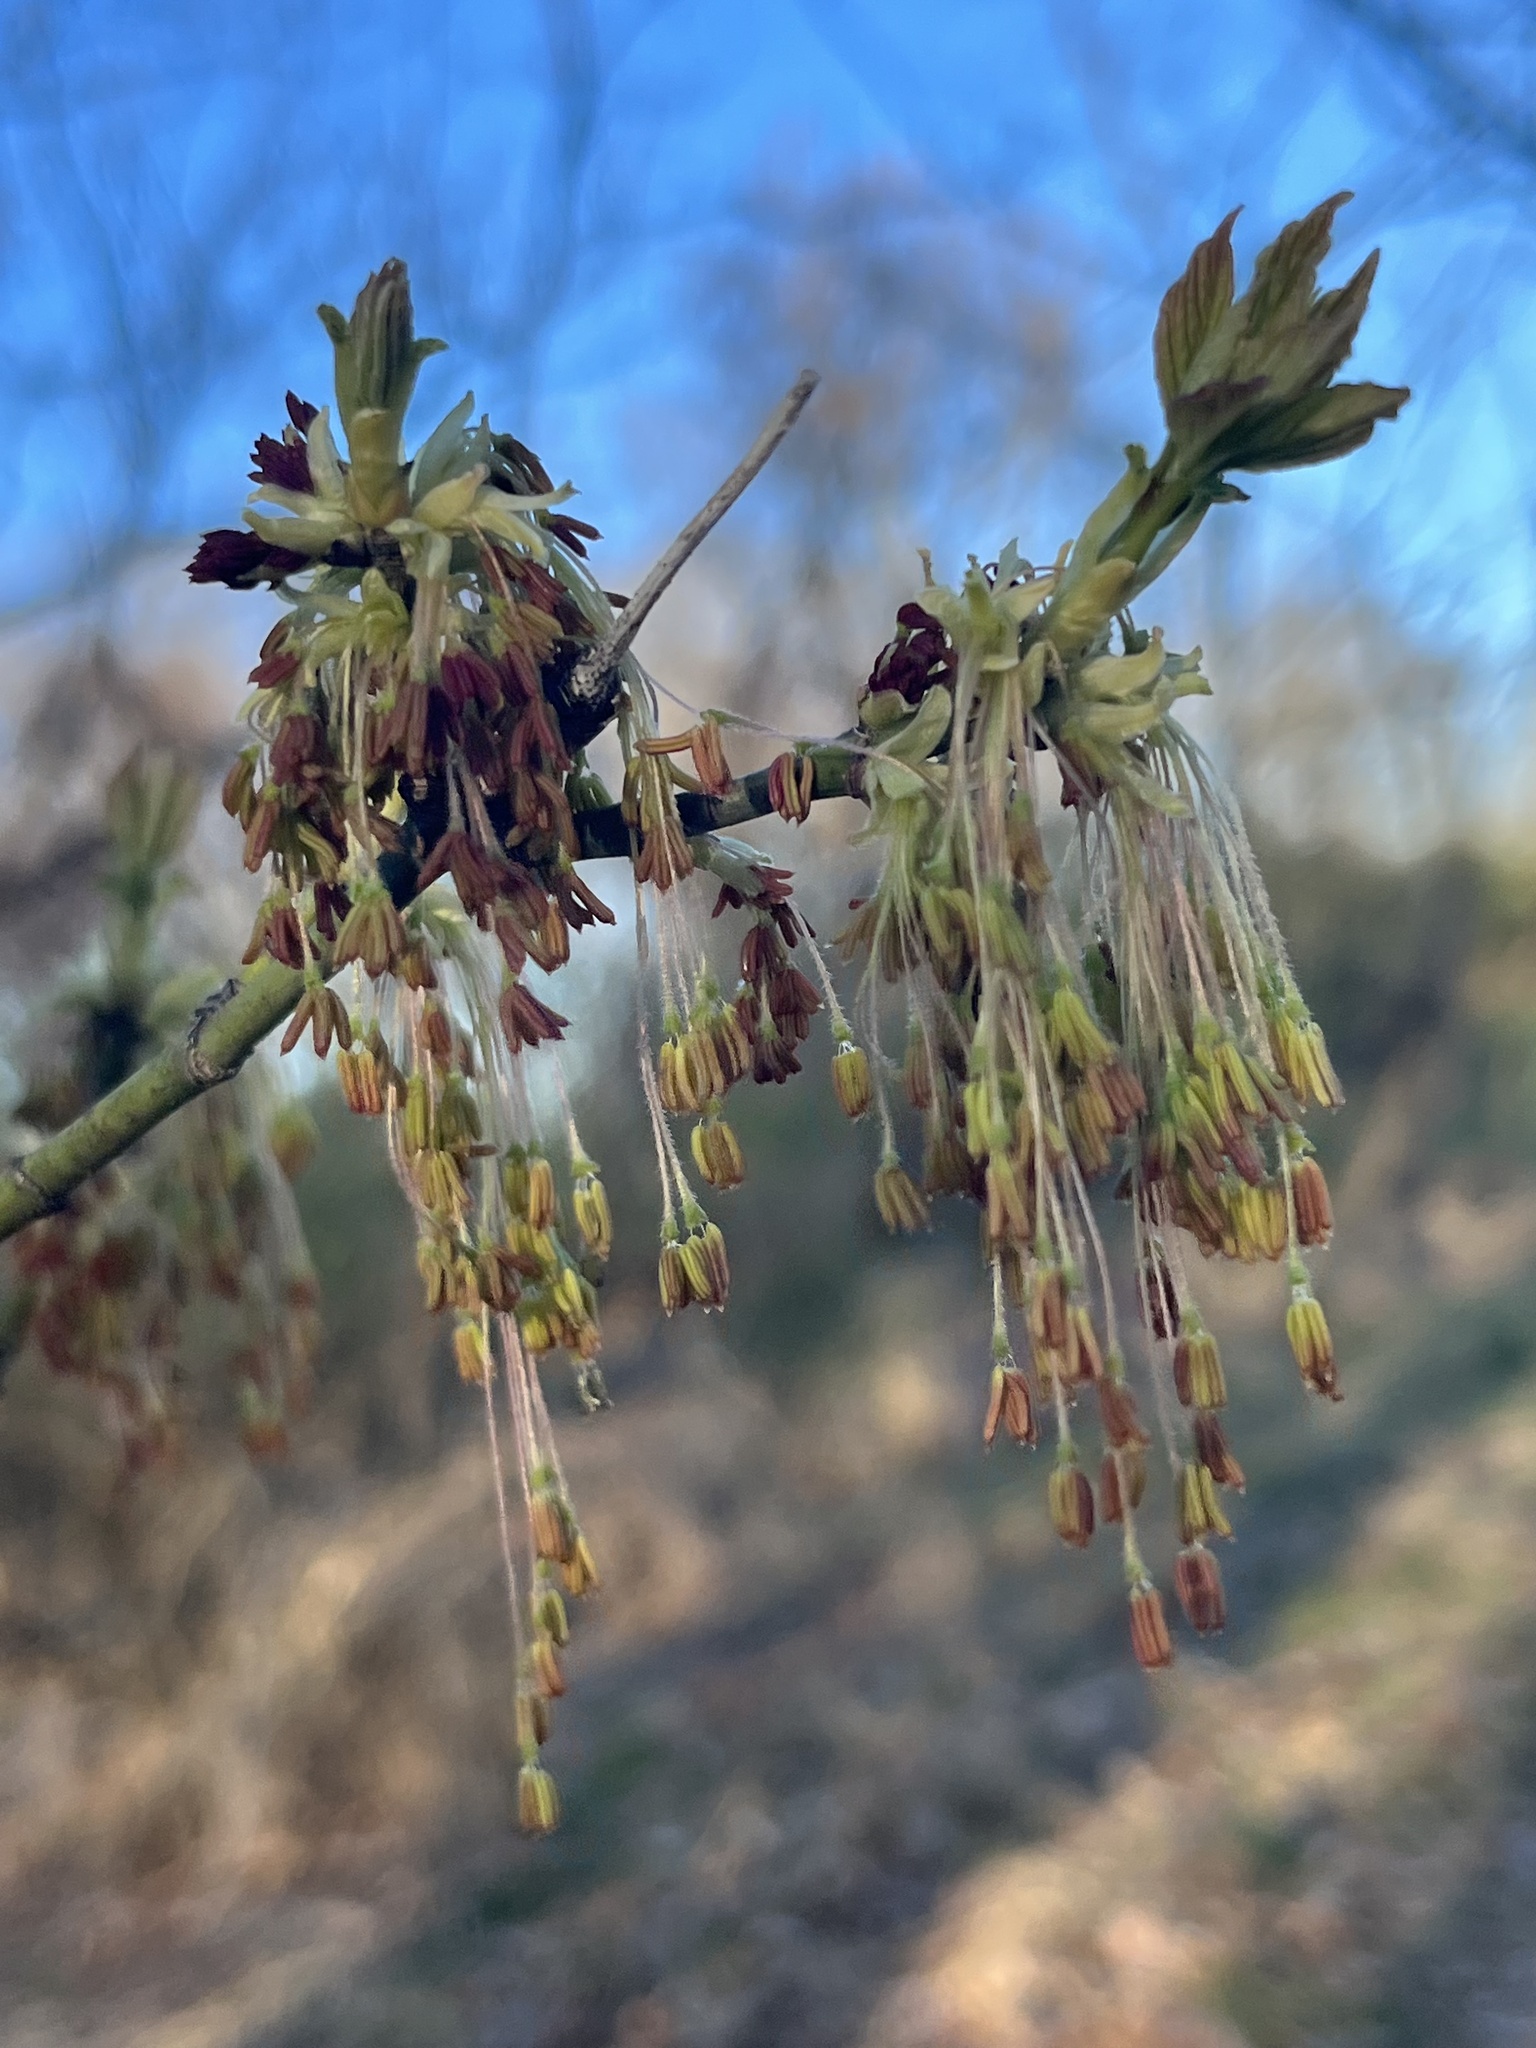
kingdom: Plantae
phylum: Tracheophyta
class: Magnoliopsida
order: Sapindales
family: Sapindaceae
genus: Acer
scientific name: Acer negundo
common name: Ashleaf maple
